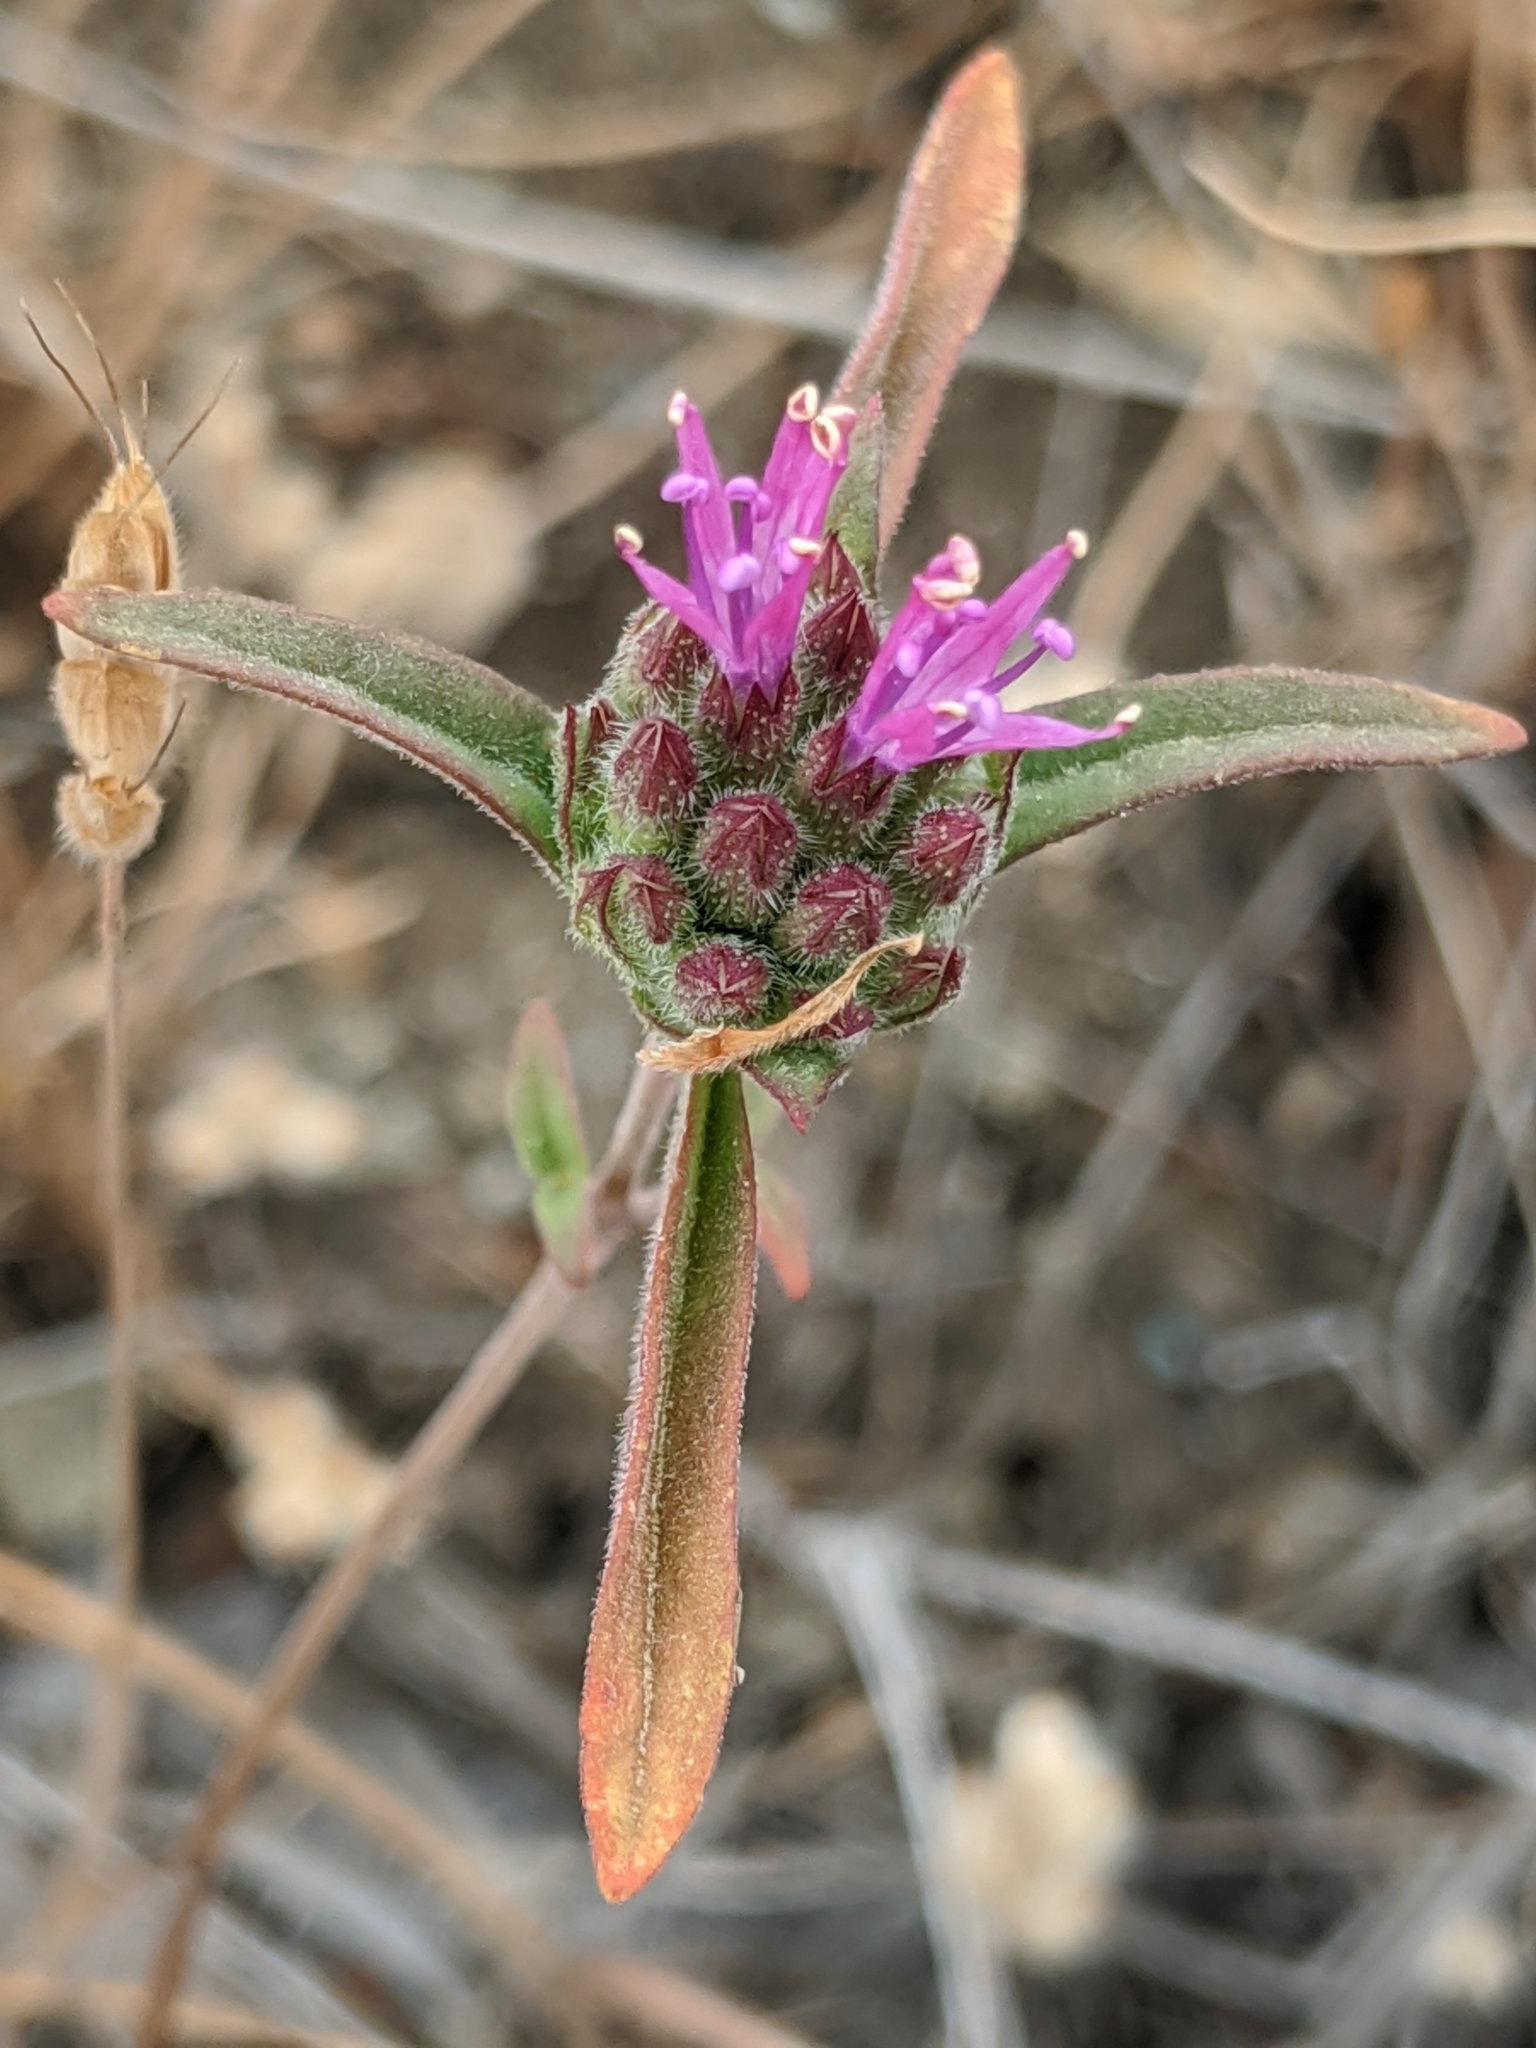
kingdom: Plantae
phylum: Tracheophyta
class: Magnoliopsida
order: Lamiales
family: Lamiaceae
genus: Monardella
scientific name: Monardella douglasii
